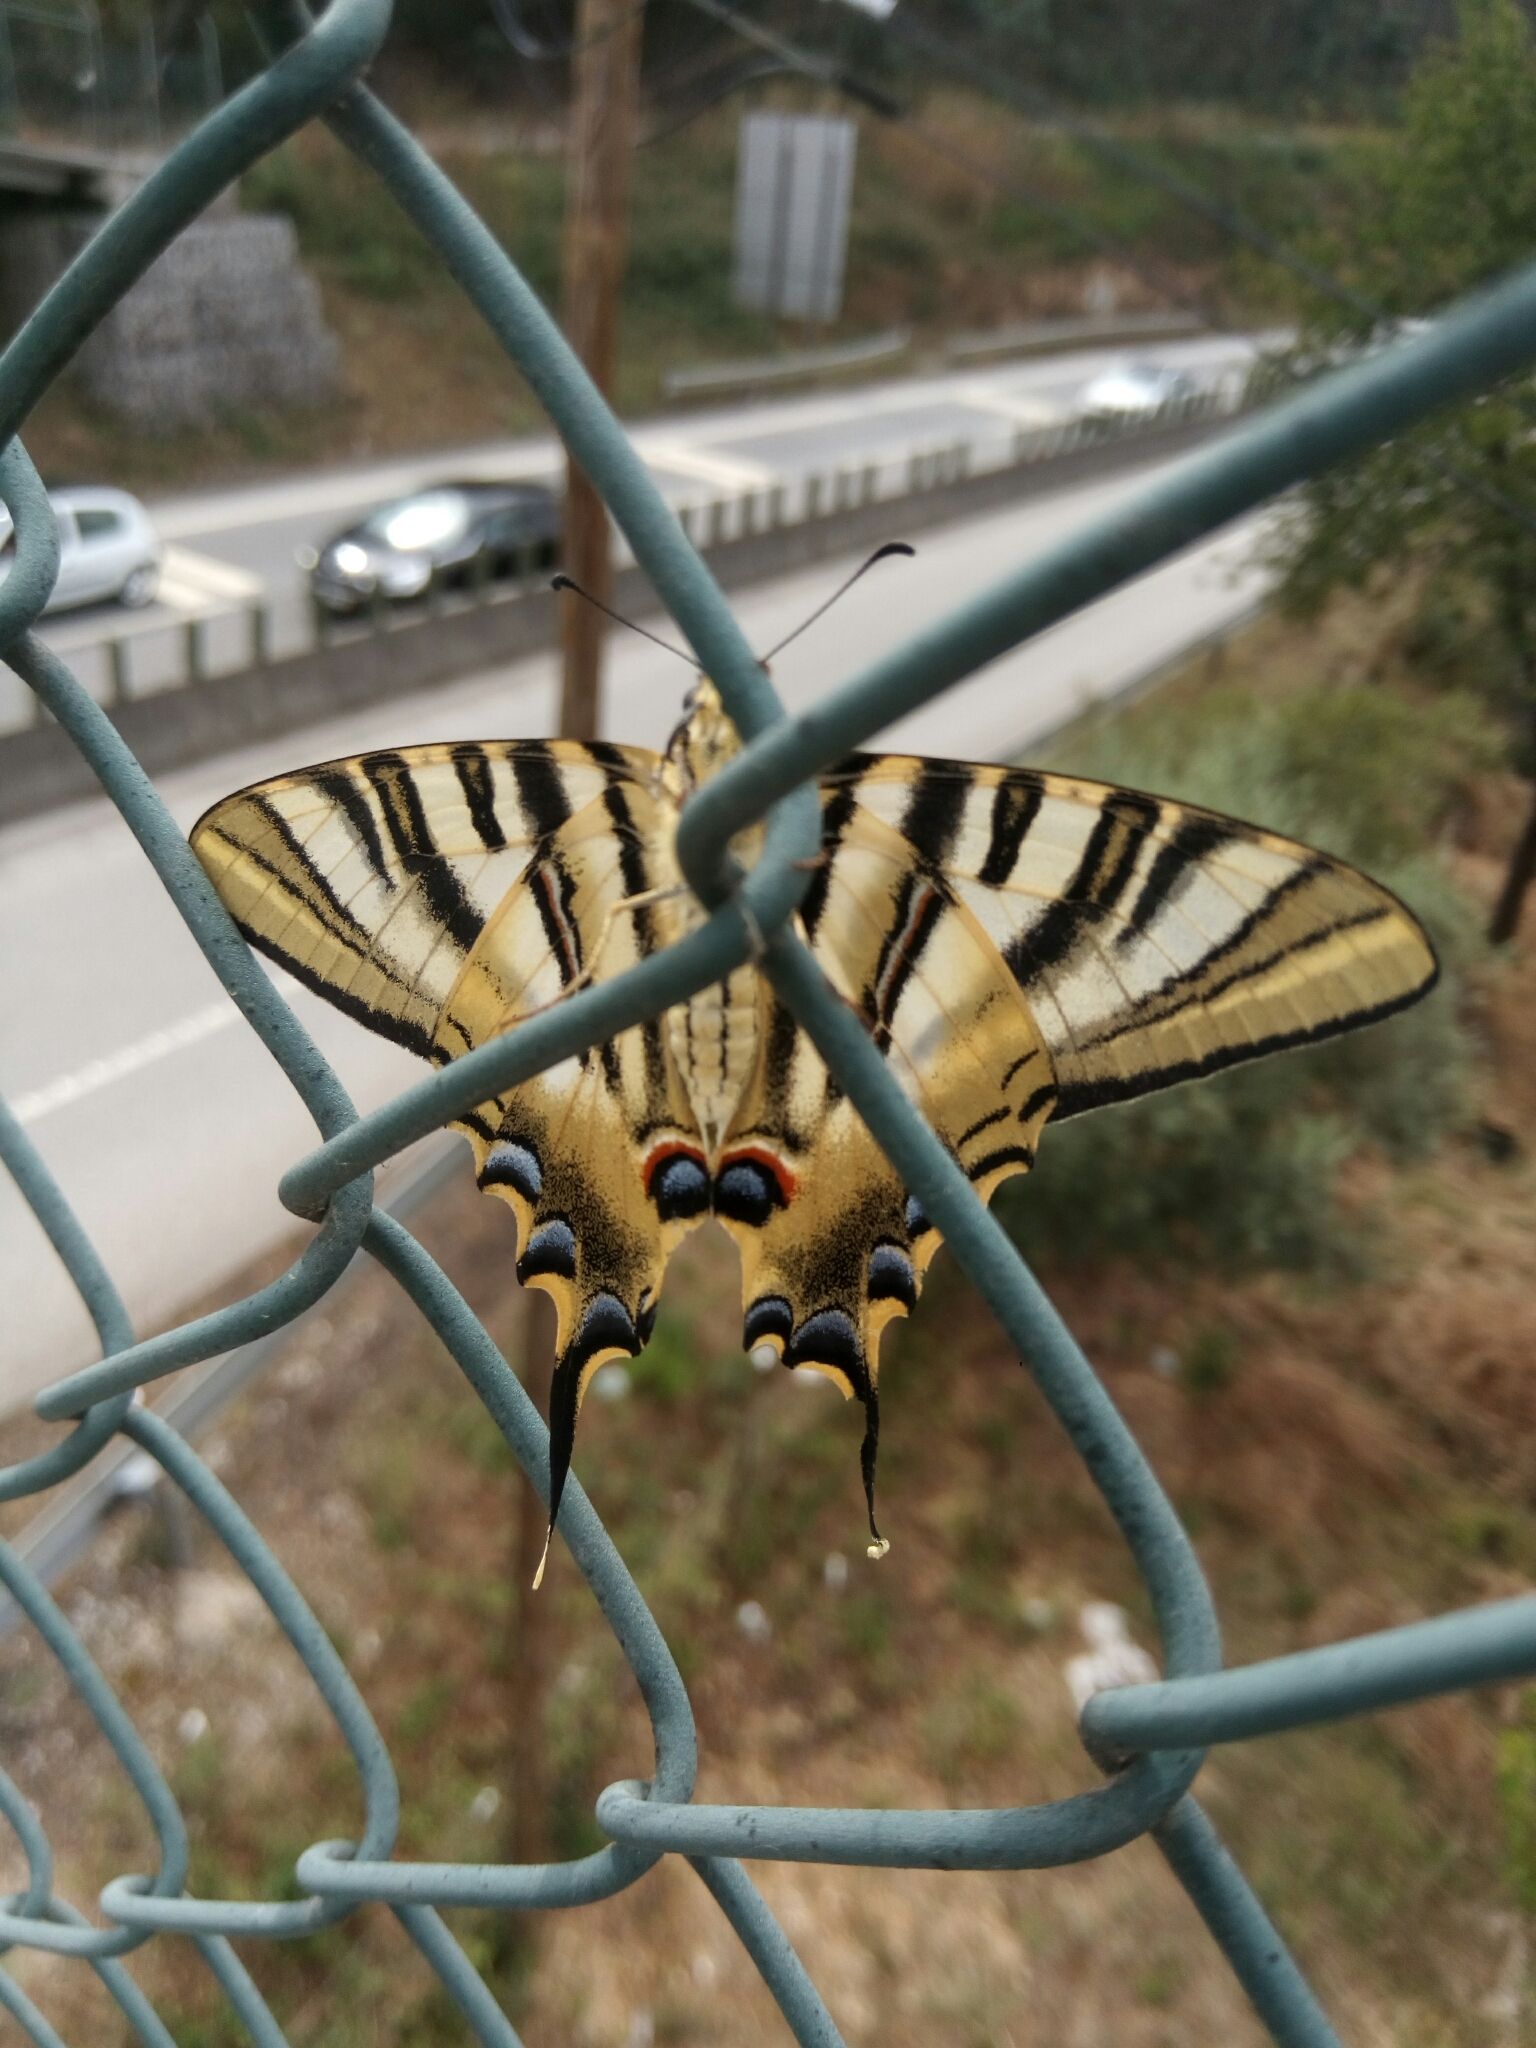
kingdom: Animalia
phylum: Arthropoda
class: Insecta
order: Lepidoptera
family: Papilionidae
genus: Iphiclides
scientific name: Iphiclides feisthamelii
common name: Iberian scarce swallowtail
